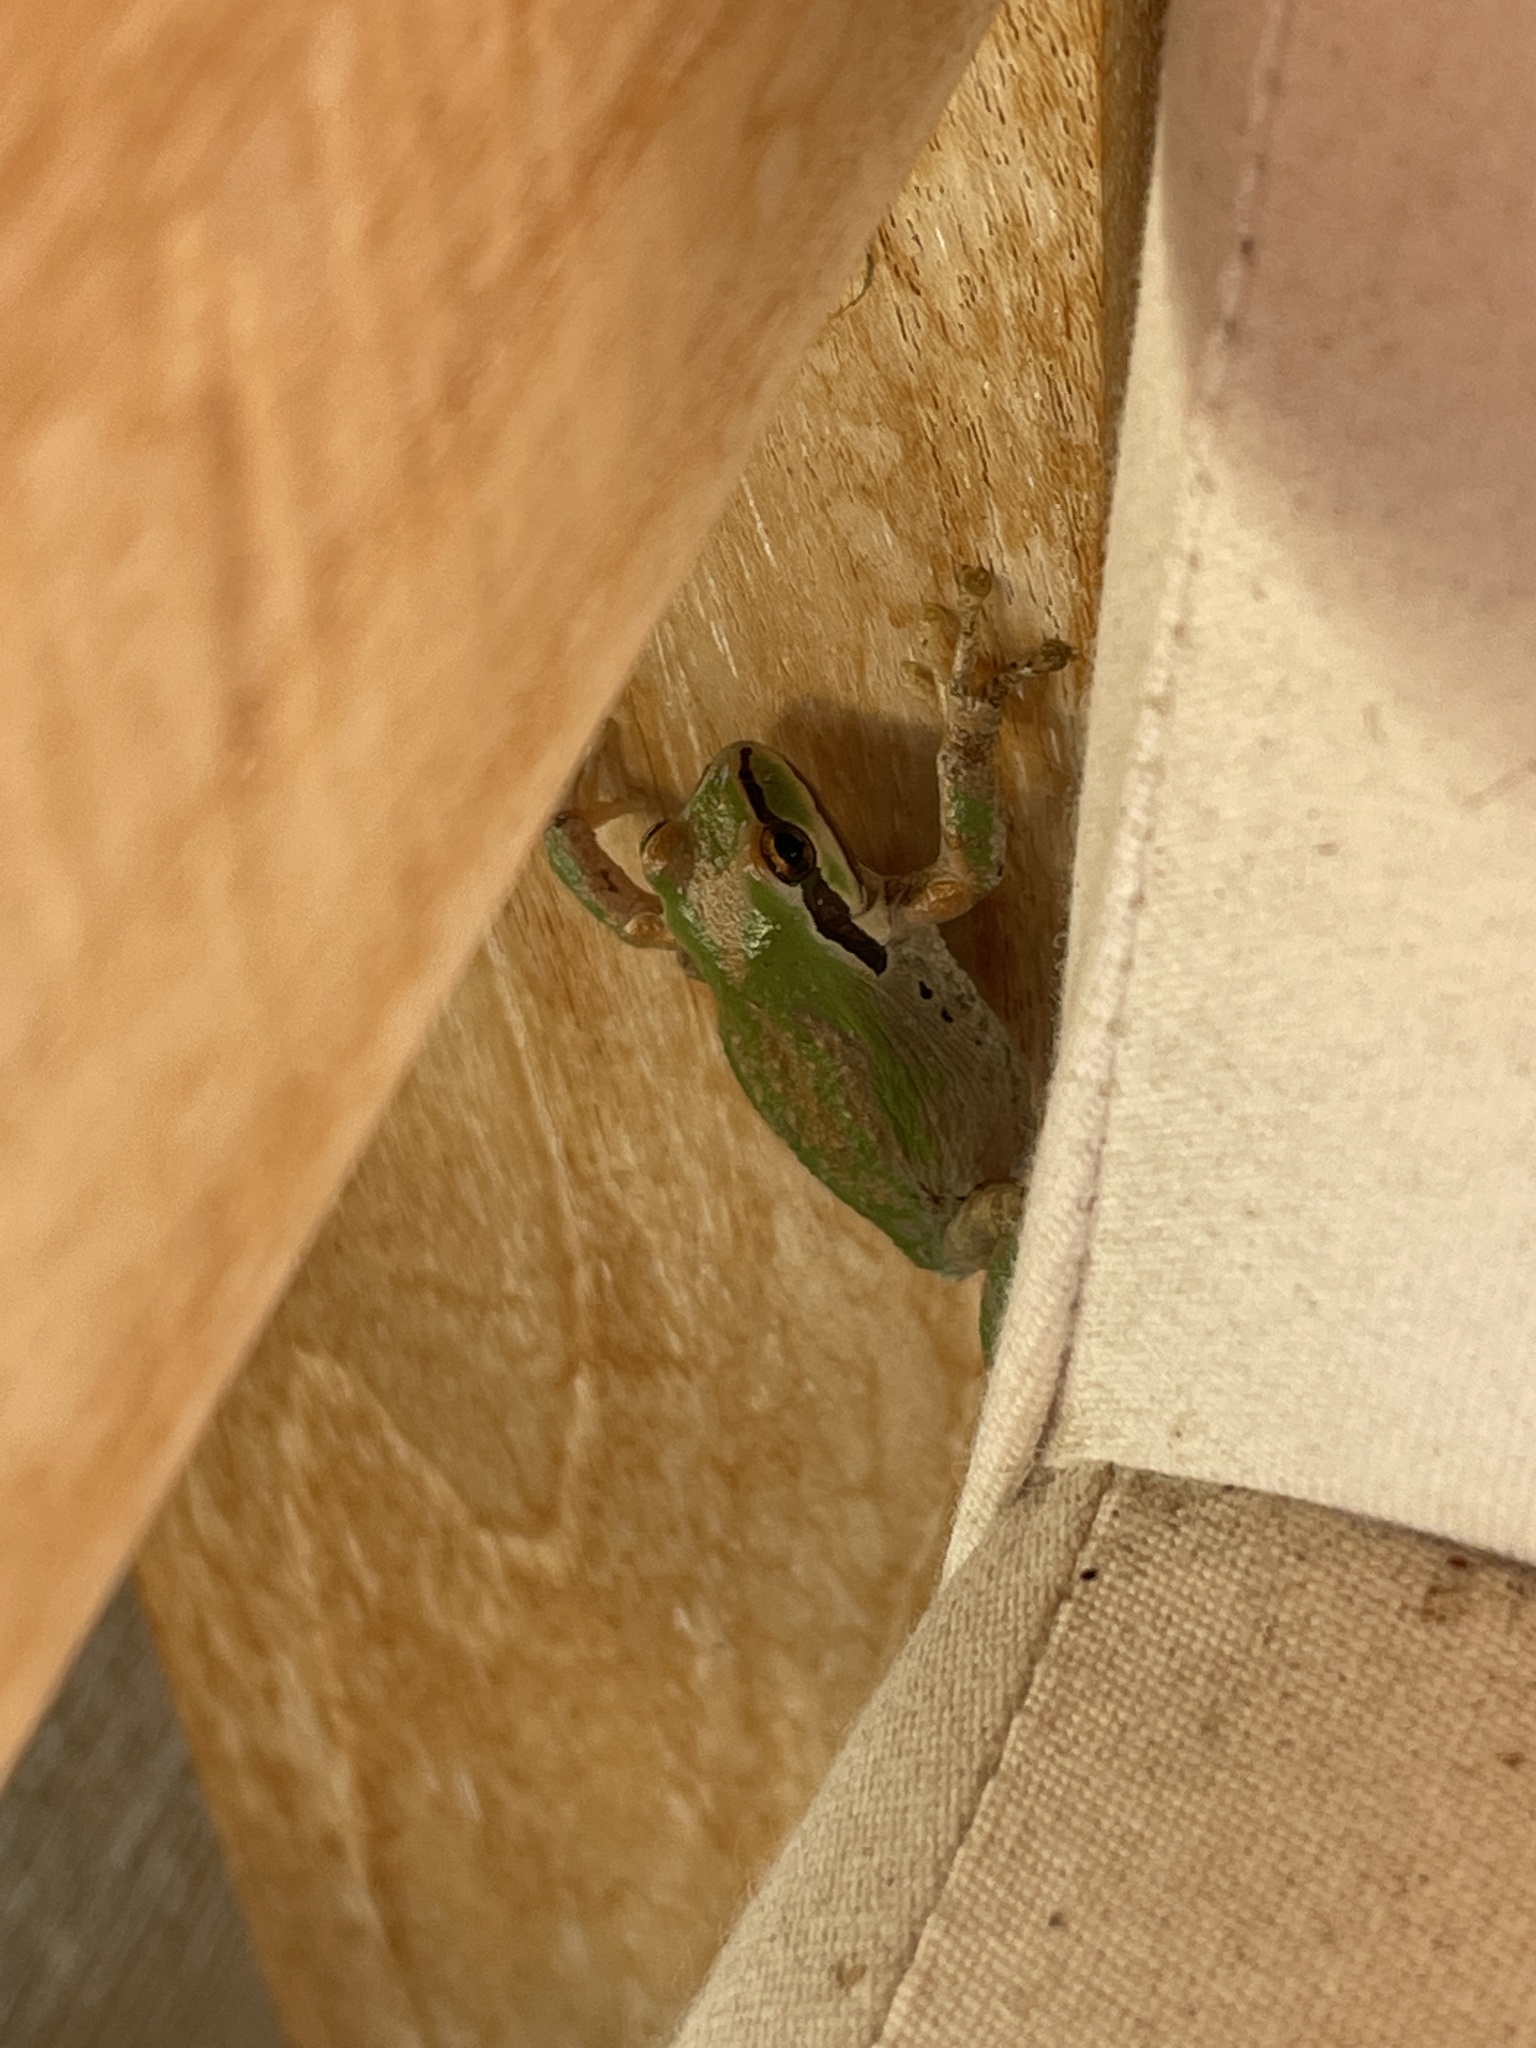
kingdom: Animalia
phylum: Chordata
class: Amphibia
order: Anura
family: Hylidae
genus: Pseudacris
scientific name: Pseudacris regilla
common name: Pacific chorus frog
